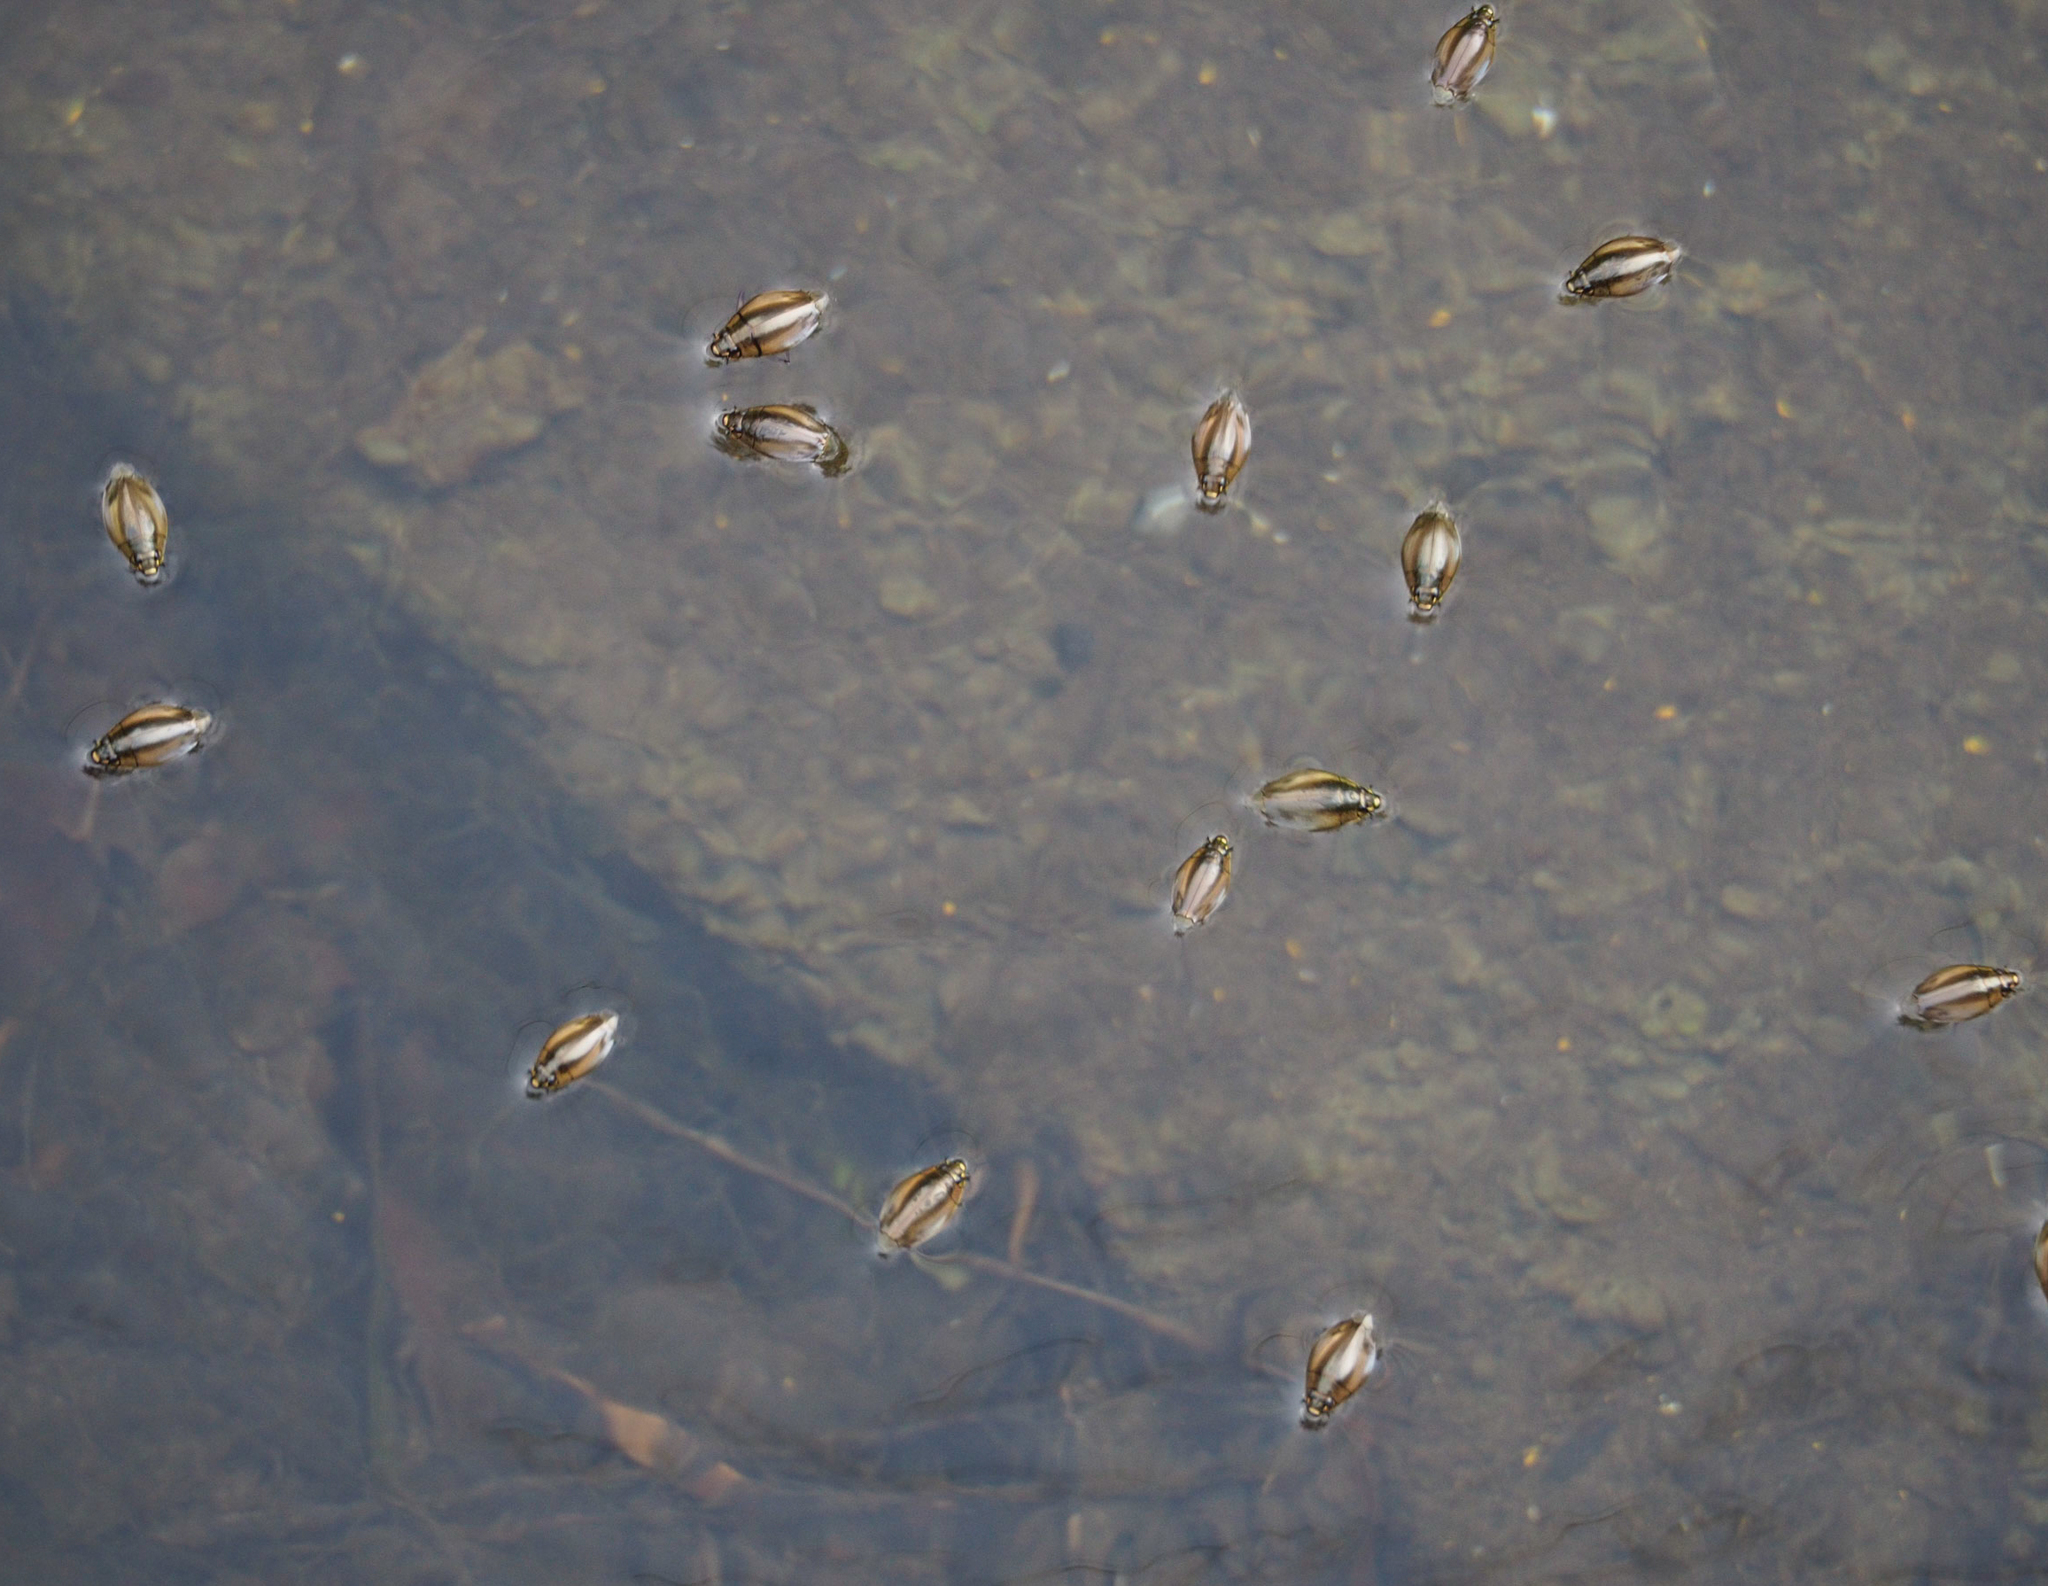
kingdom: Animalia
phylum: Arthropoda
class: Insecta
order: Coleoptera
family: Gyrinidae
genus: Dineutus
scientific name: Dineutus longimanus
